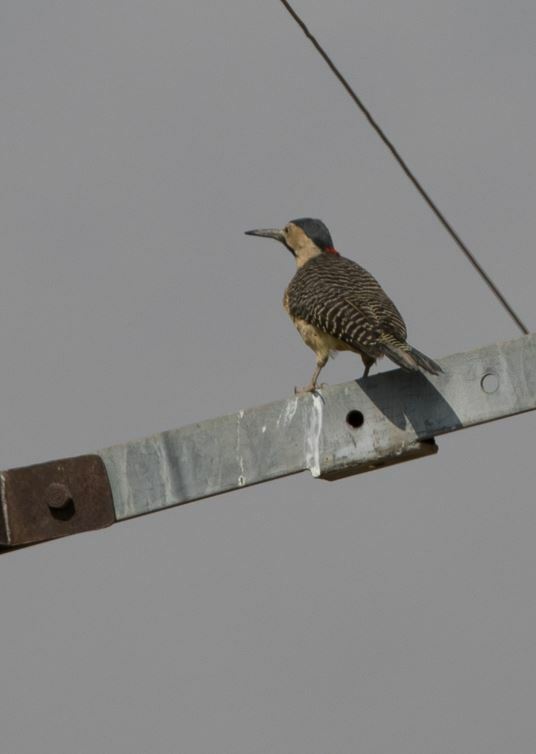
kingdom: Animalia
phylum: Chordata
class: Aves
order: Piciformes
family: Picidae
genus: Colaptes
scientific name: Colaptes rupicola
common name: Andean flicker
